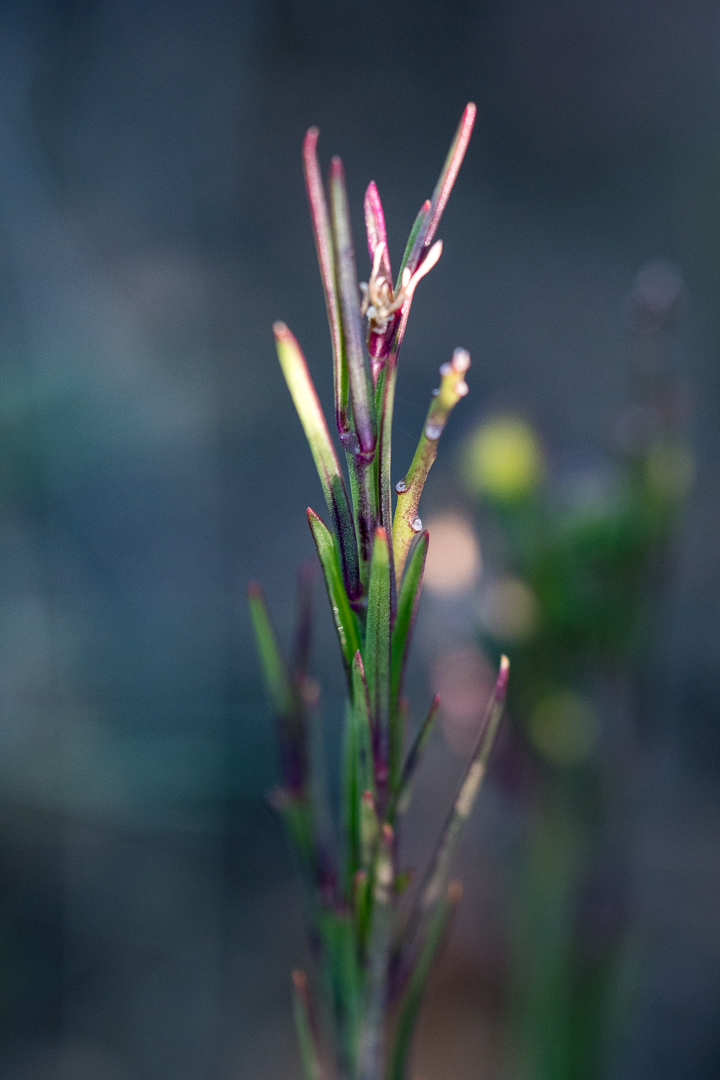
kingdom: Plantae
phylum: Tracheophyta
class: Magnoliopsida
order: Fabales
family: Polygalaceae
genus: Polygala
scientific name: Polygala garcini
